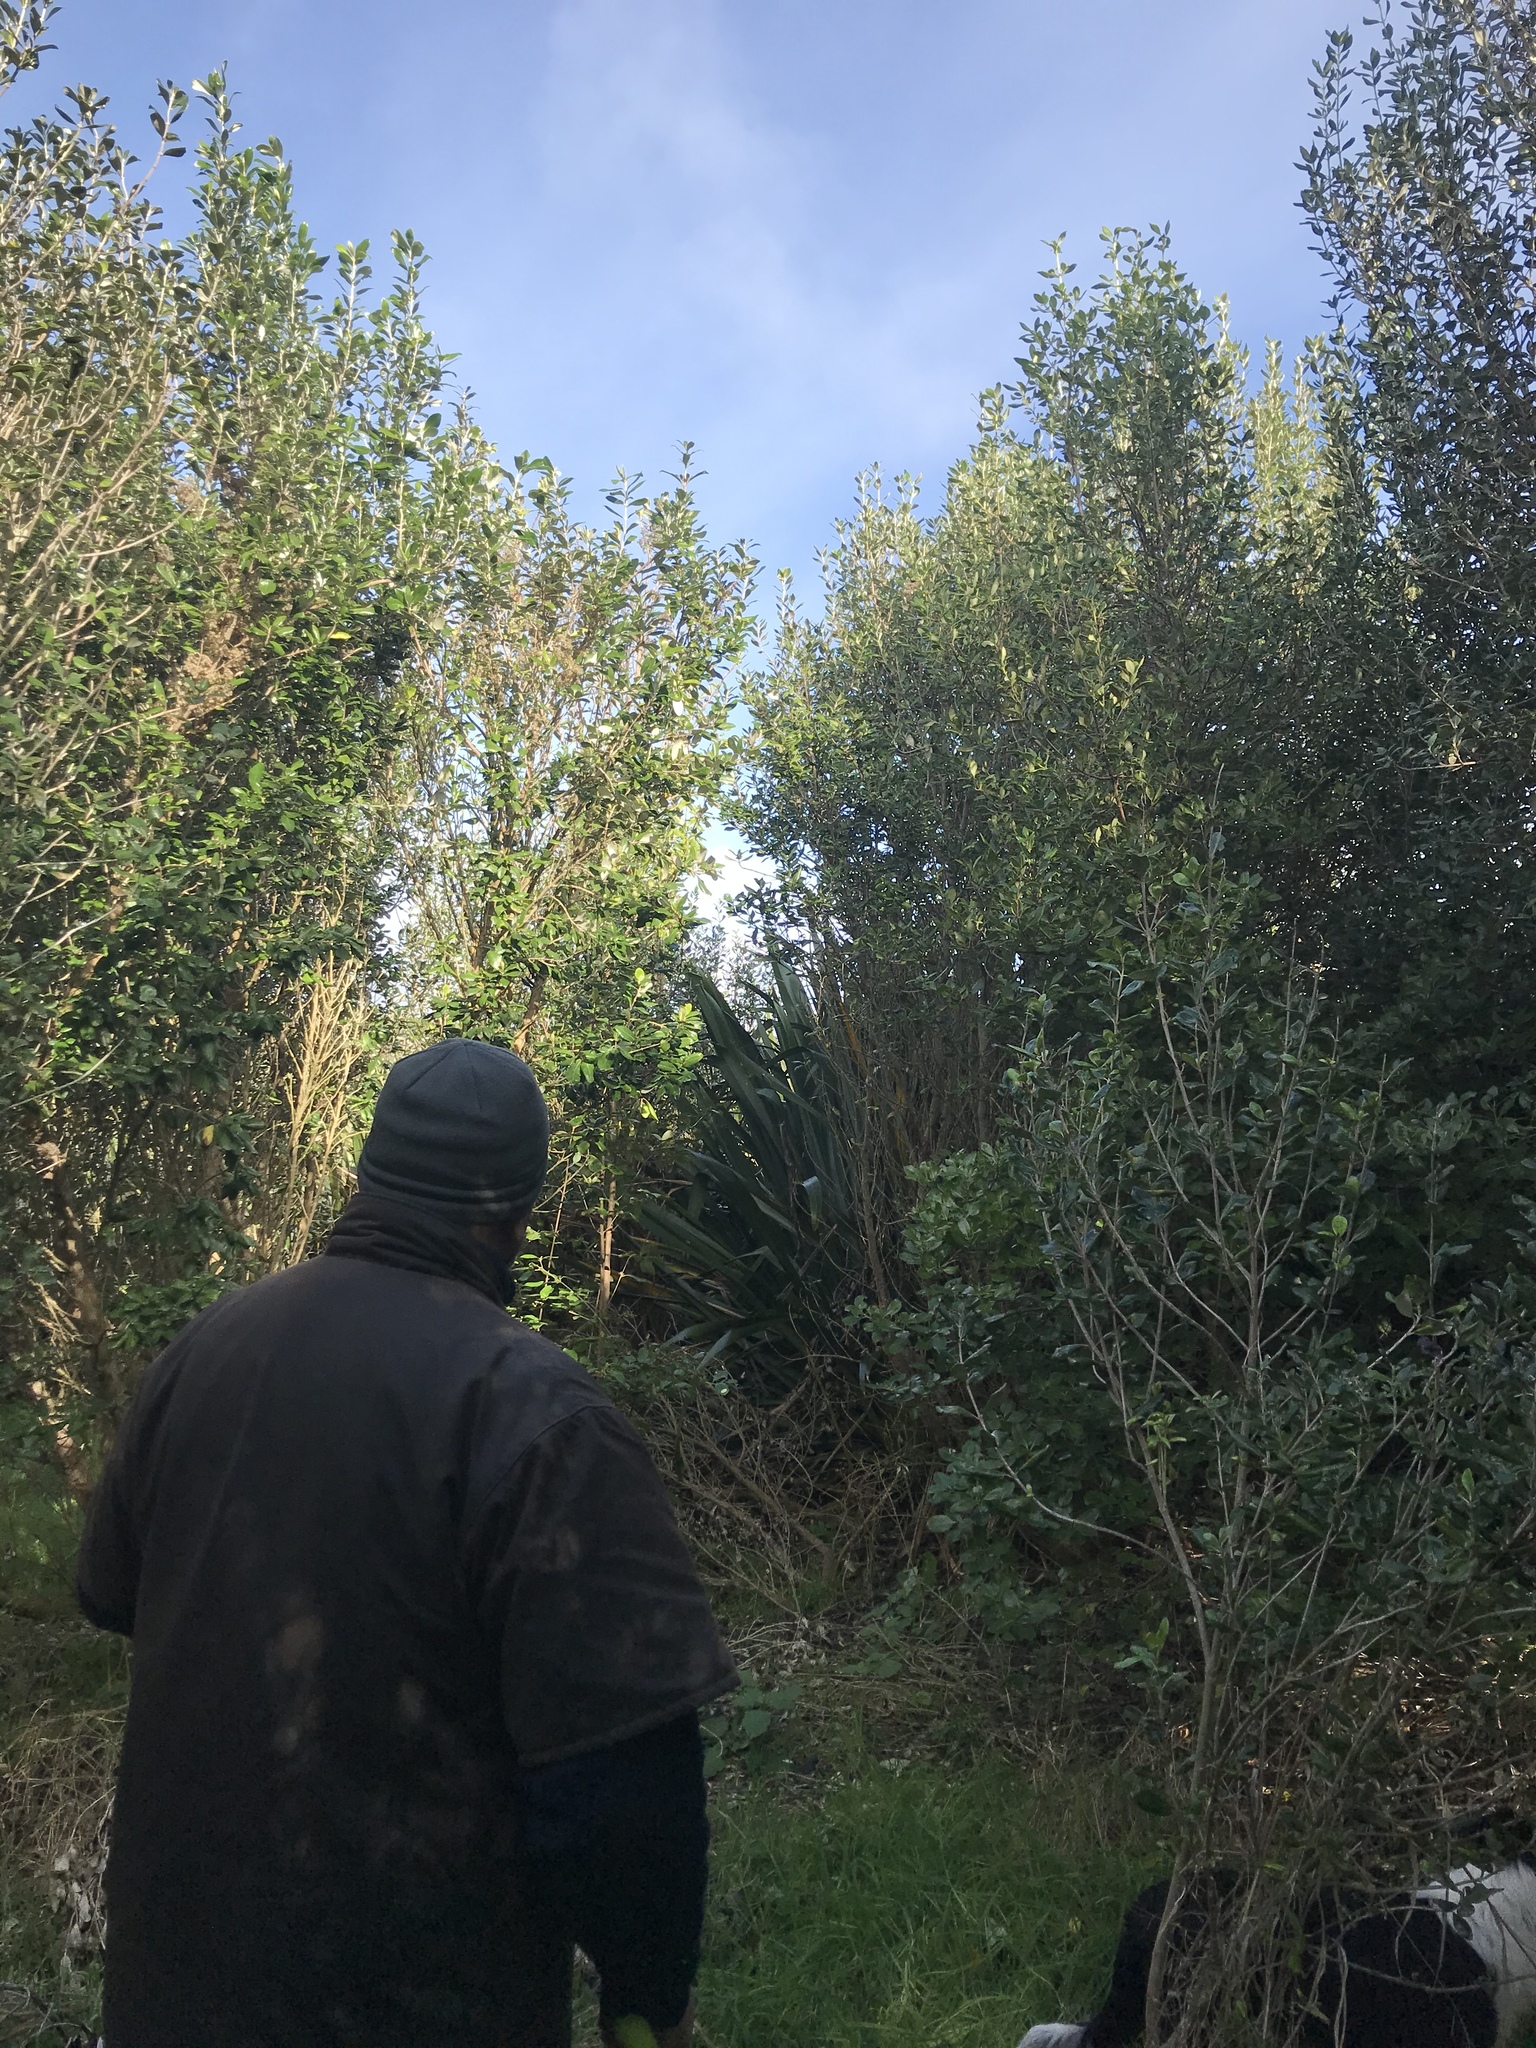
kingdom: Plantae
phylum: Tracheophyta
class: Magnoliopsida
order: Gentianales
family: Rubiaceae
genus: Coprosma
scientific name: Coprosma chathamica
